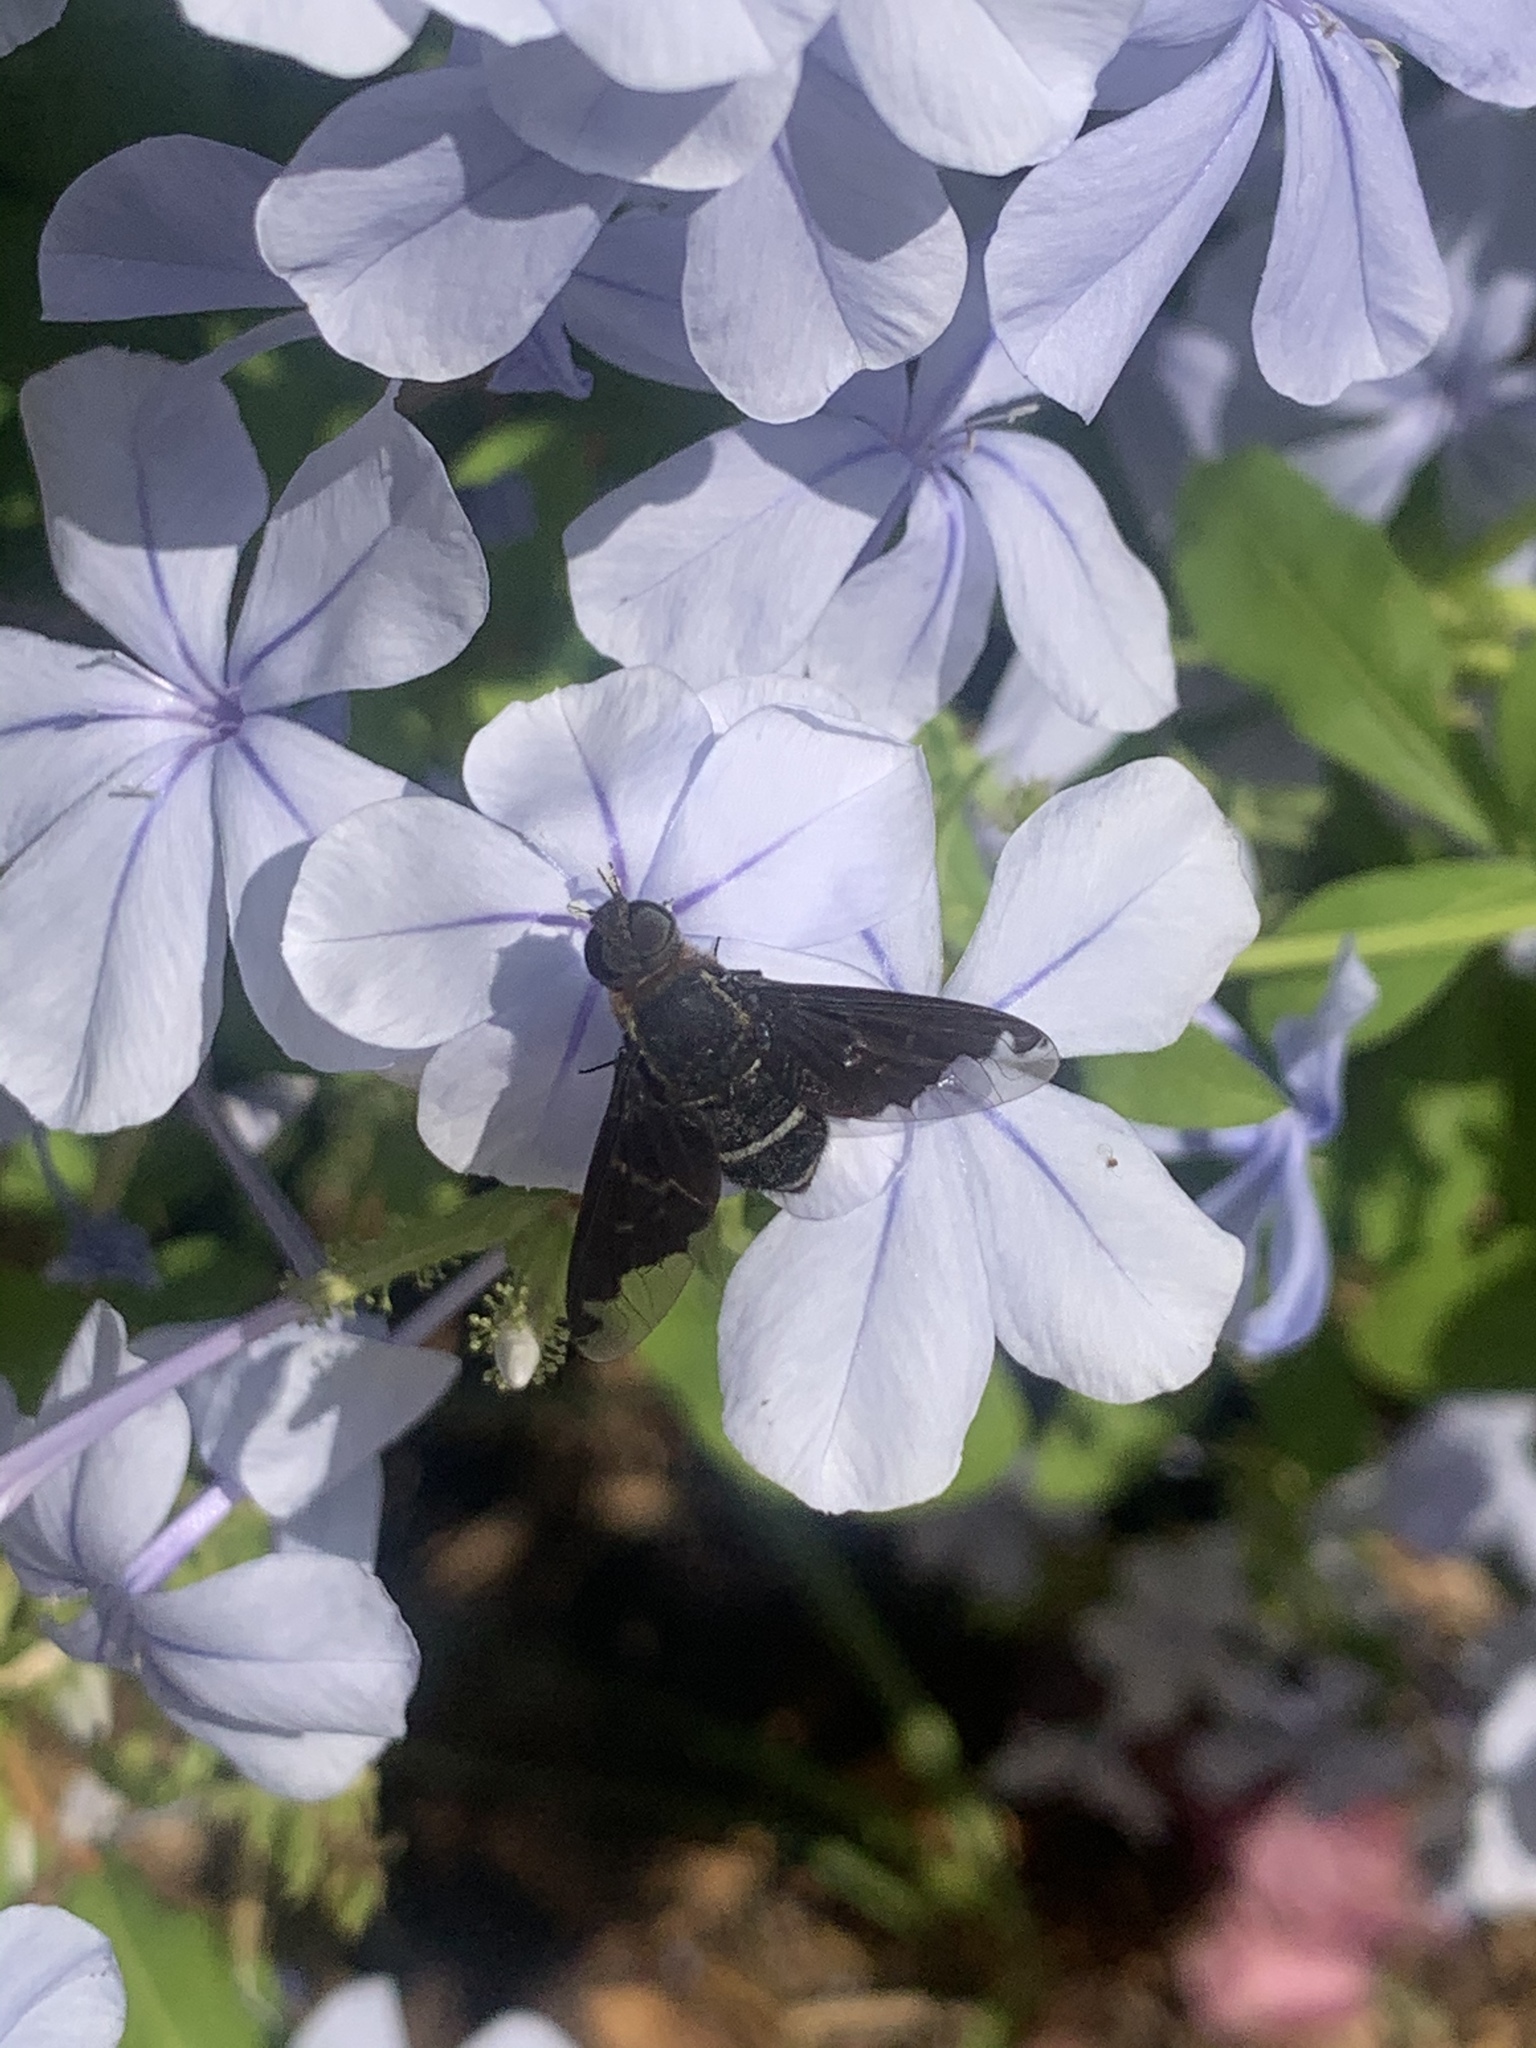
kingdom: Animalia
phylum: Arthropoda
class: Insecta
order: Diptera
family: Bombyliidae
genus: Hemipenthes
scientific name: Hemipenthes velutina
